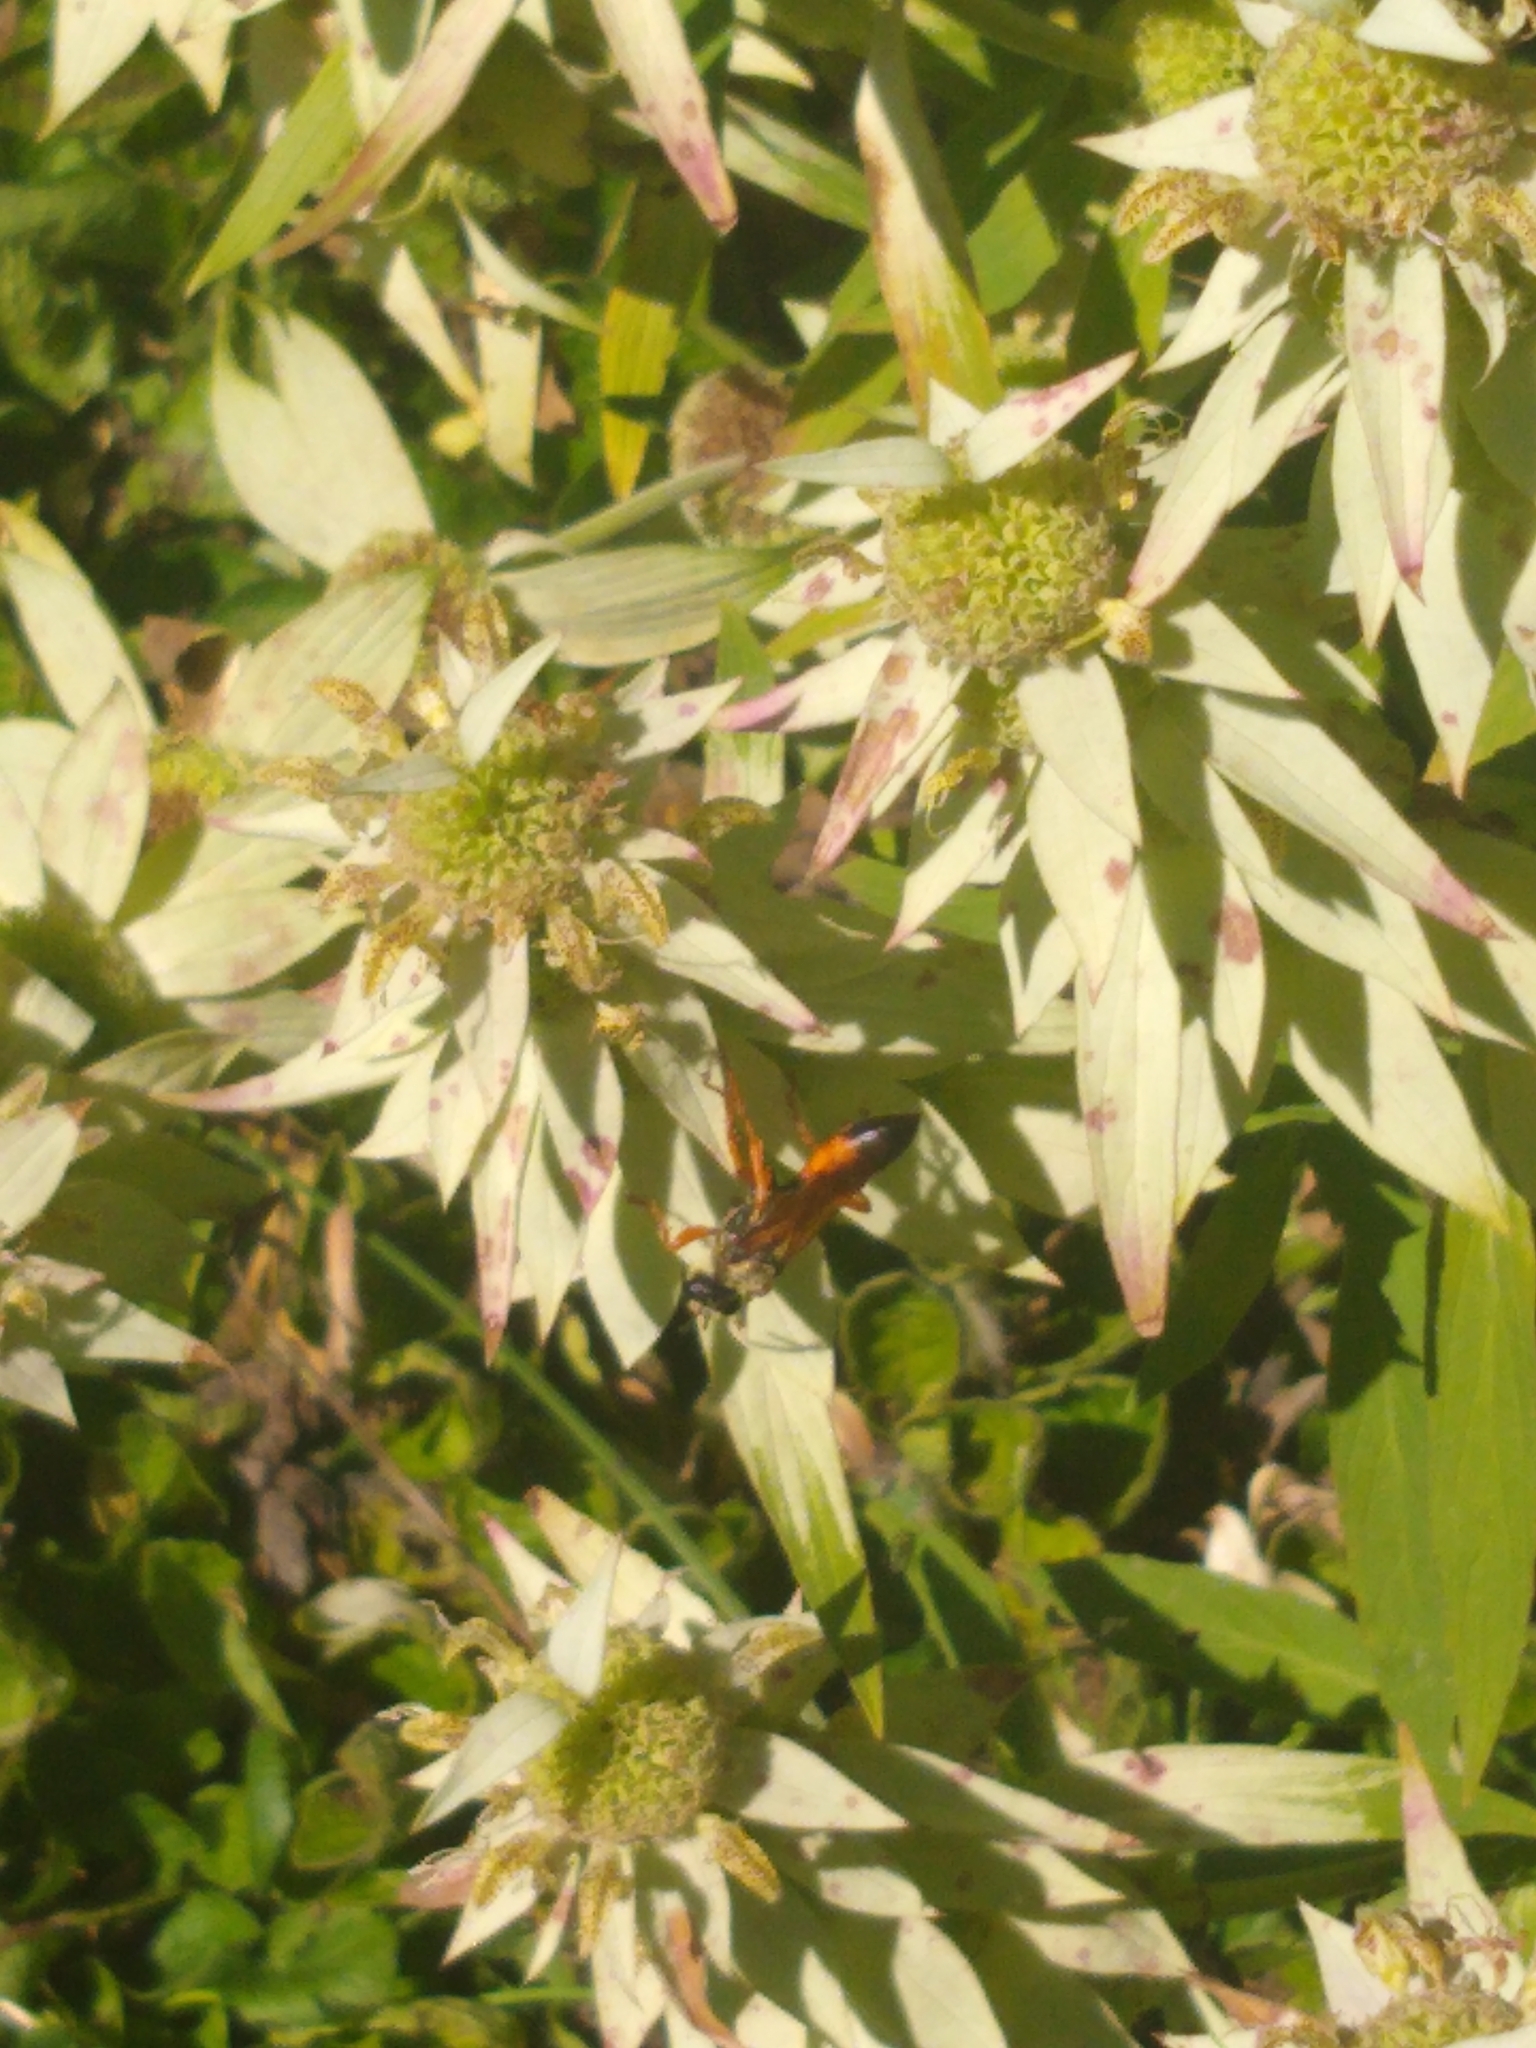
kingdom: Animalia
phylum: Arthropoda
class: Insecta
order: Hymenoptera
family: Sphecidae
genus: Sphex
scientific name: Sphex ichneumoneus
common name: Great golden digger wasp
